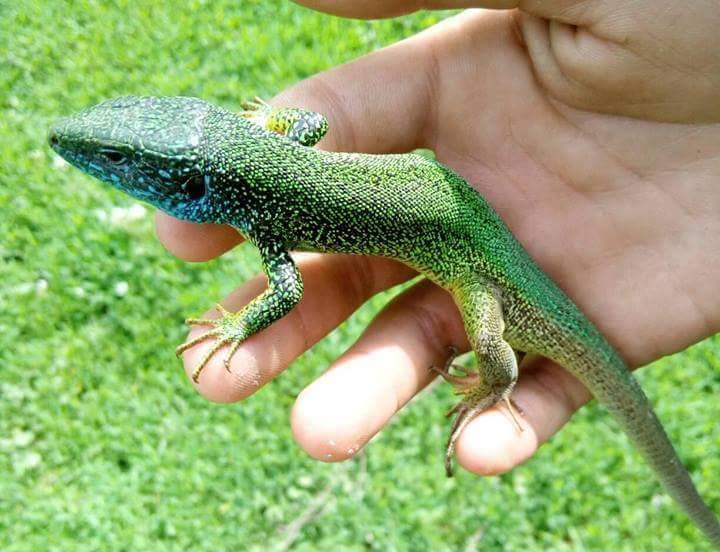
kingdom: Animalia
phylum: Chordata
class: Squamata
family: Lacertidae
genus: Lacerta
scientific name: Lacerta viridis
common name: European green lizard
